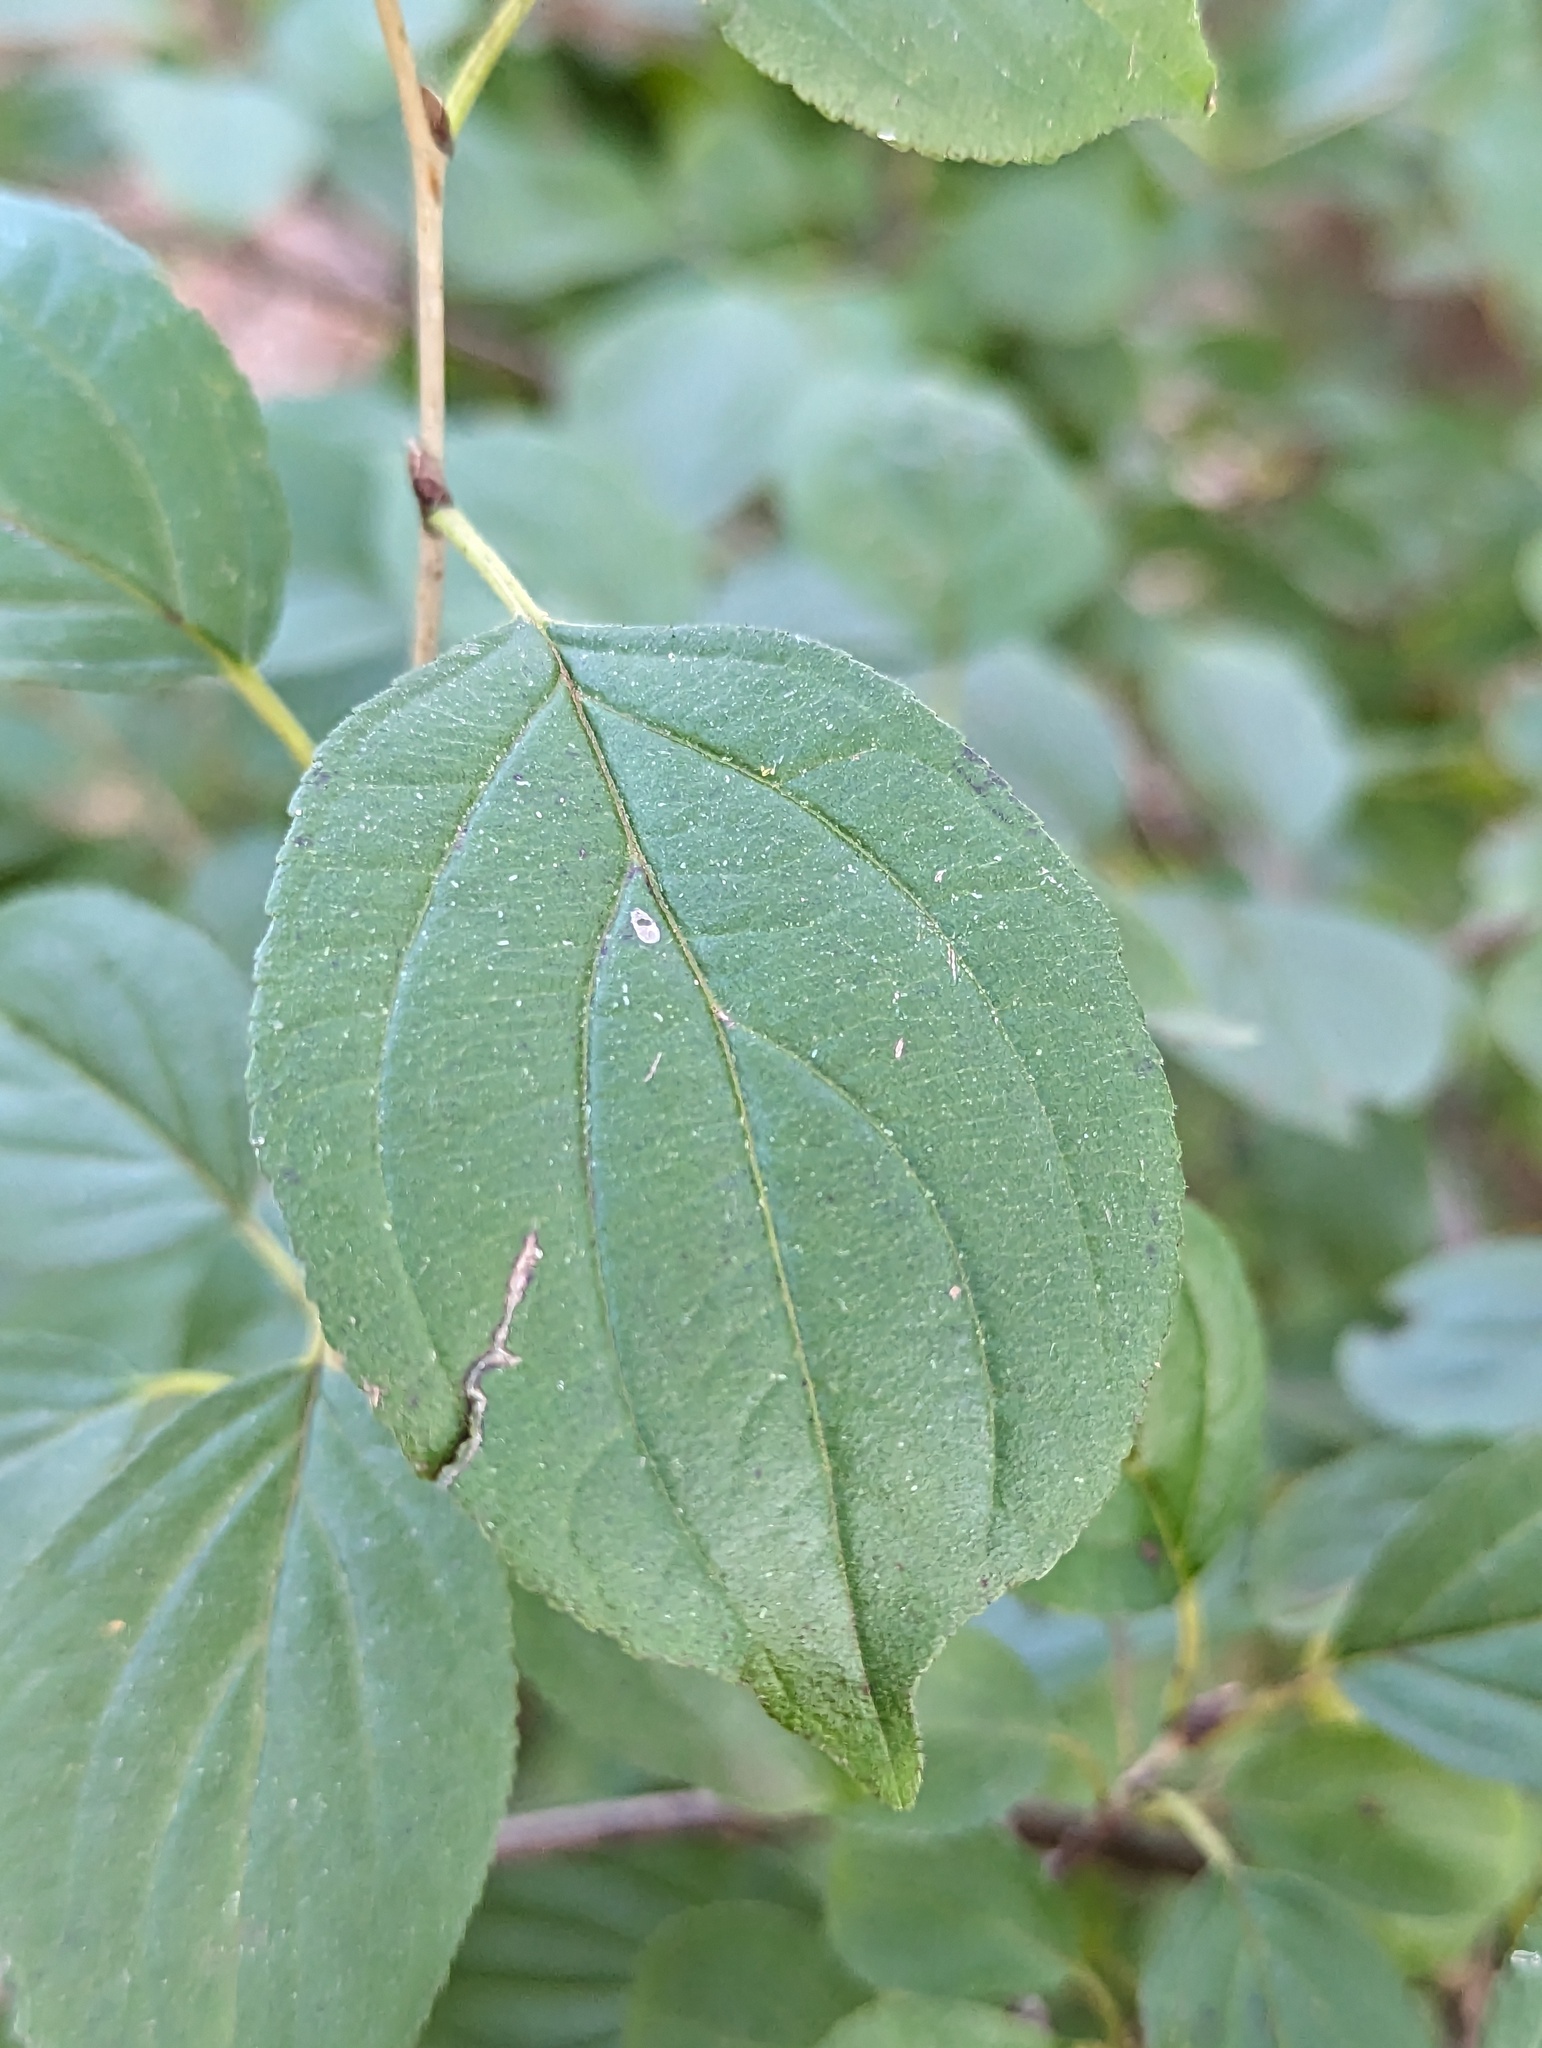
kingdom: Plantae
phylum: Tracheophyta
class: Magnoliopsida
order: Rosales
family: Rhamnaceae
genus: Rhamnus
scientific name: Rhamnus cathartica
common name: Common buckthorn
